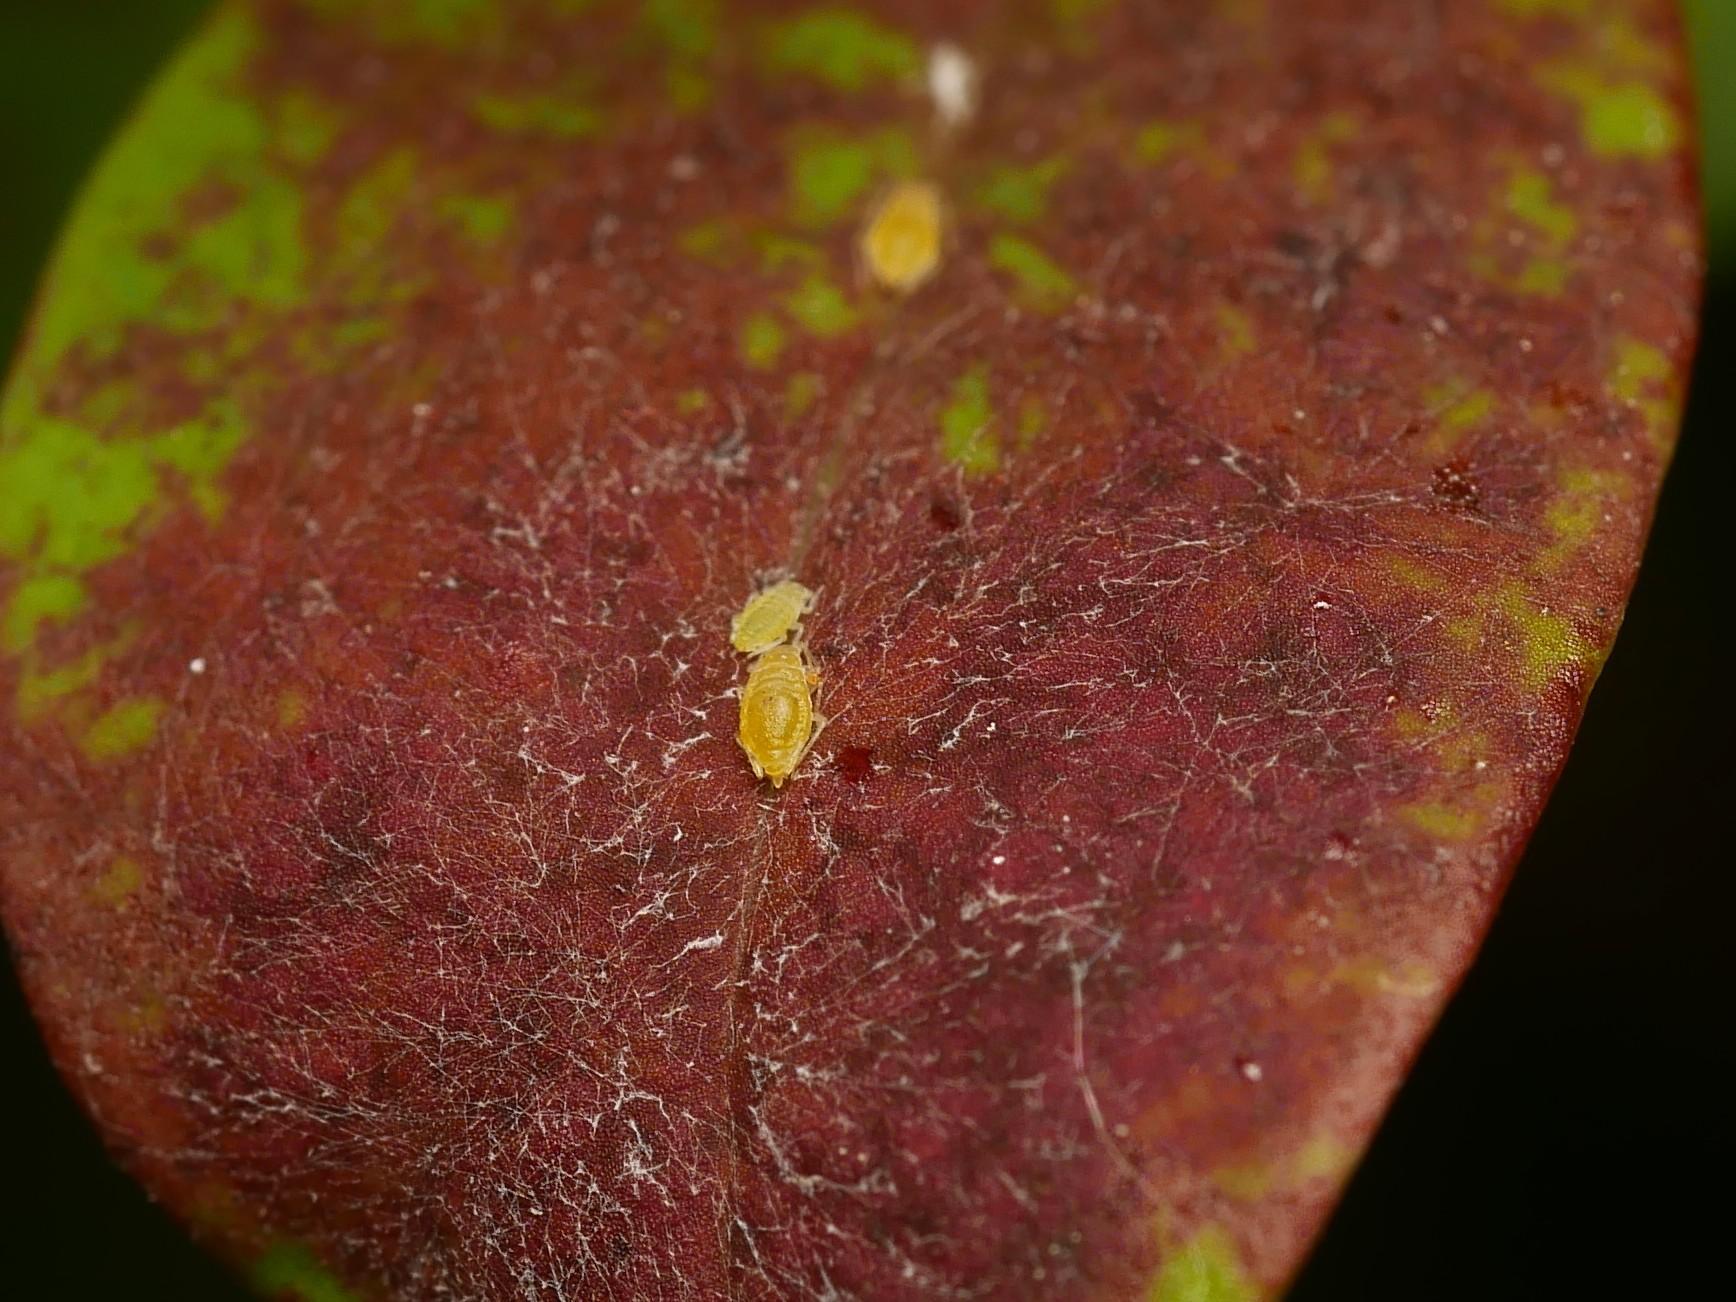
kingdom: Animalia
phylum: Arthropoda
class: Insecta
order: Hemiptera
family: Aphididae
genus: Liosomaphis
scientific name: Liosomaphis berberidis
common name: Barberry aphid
